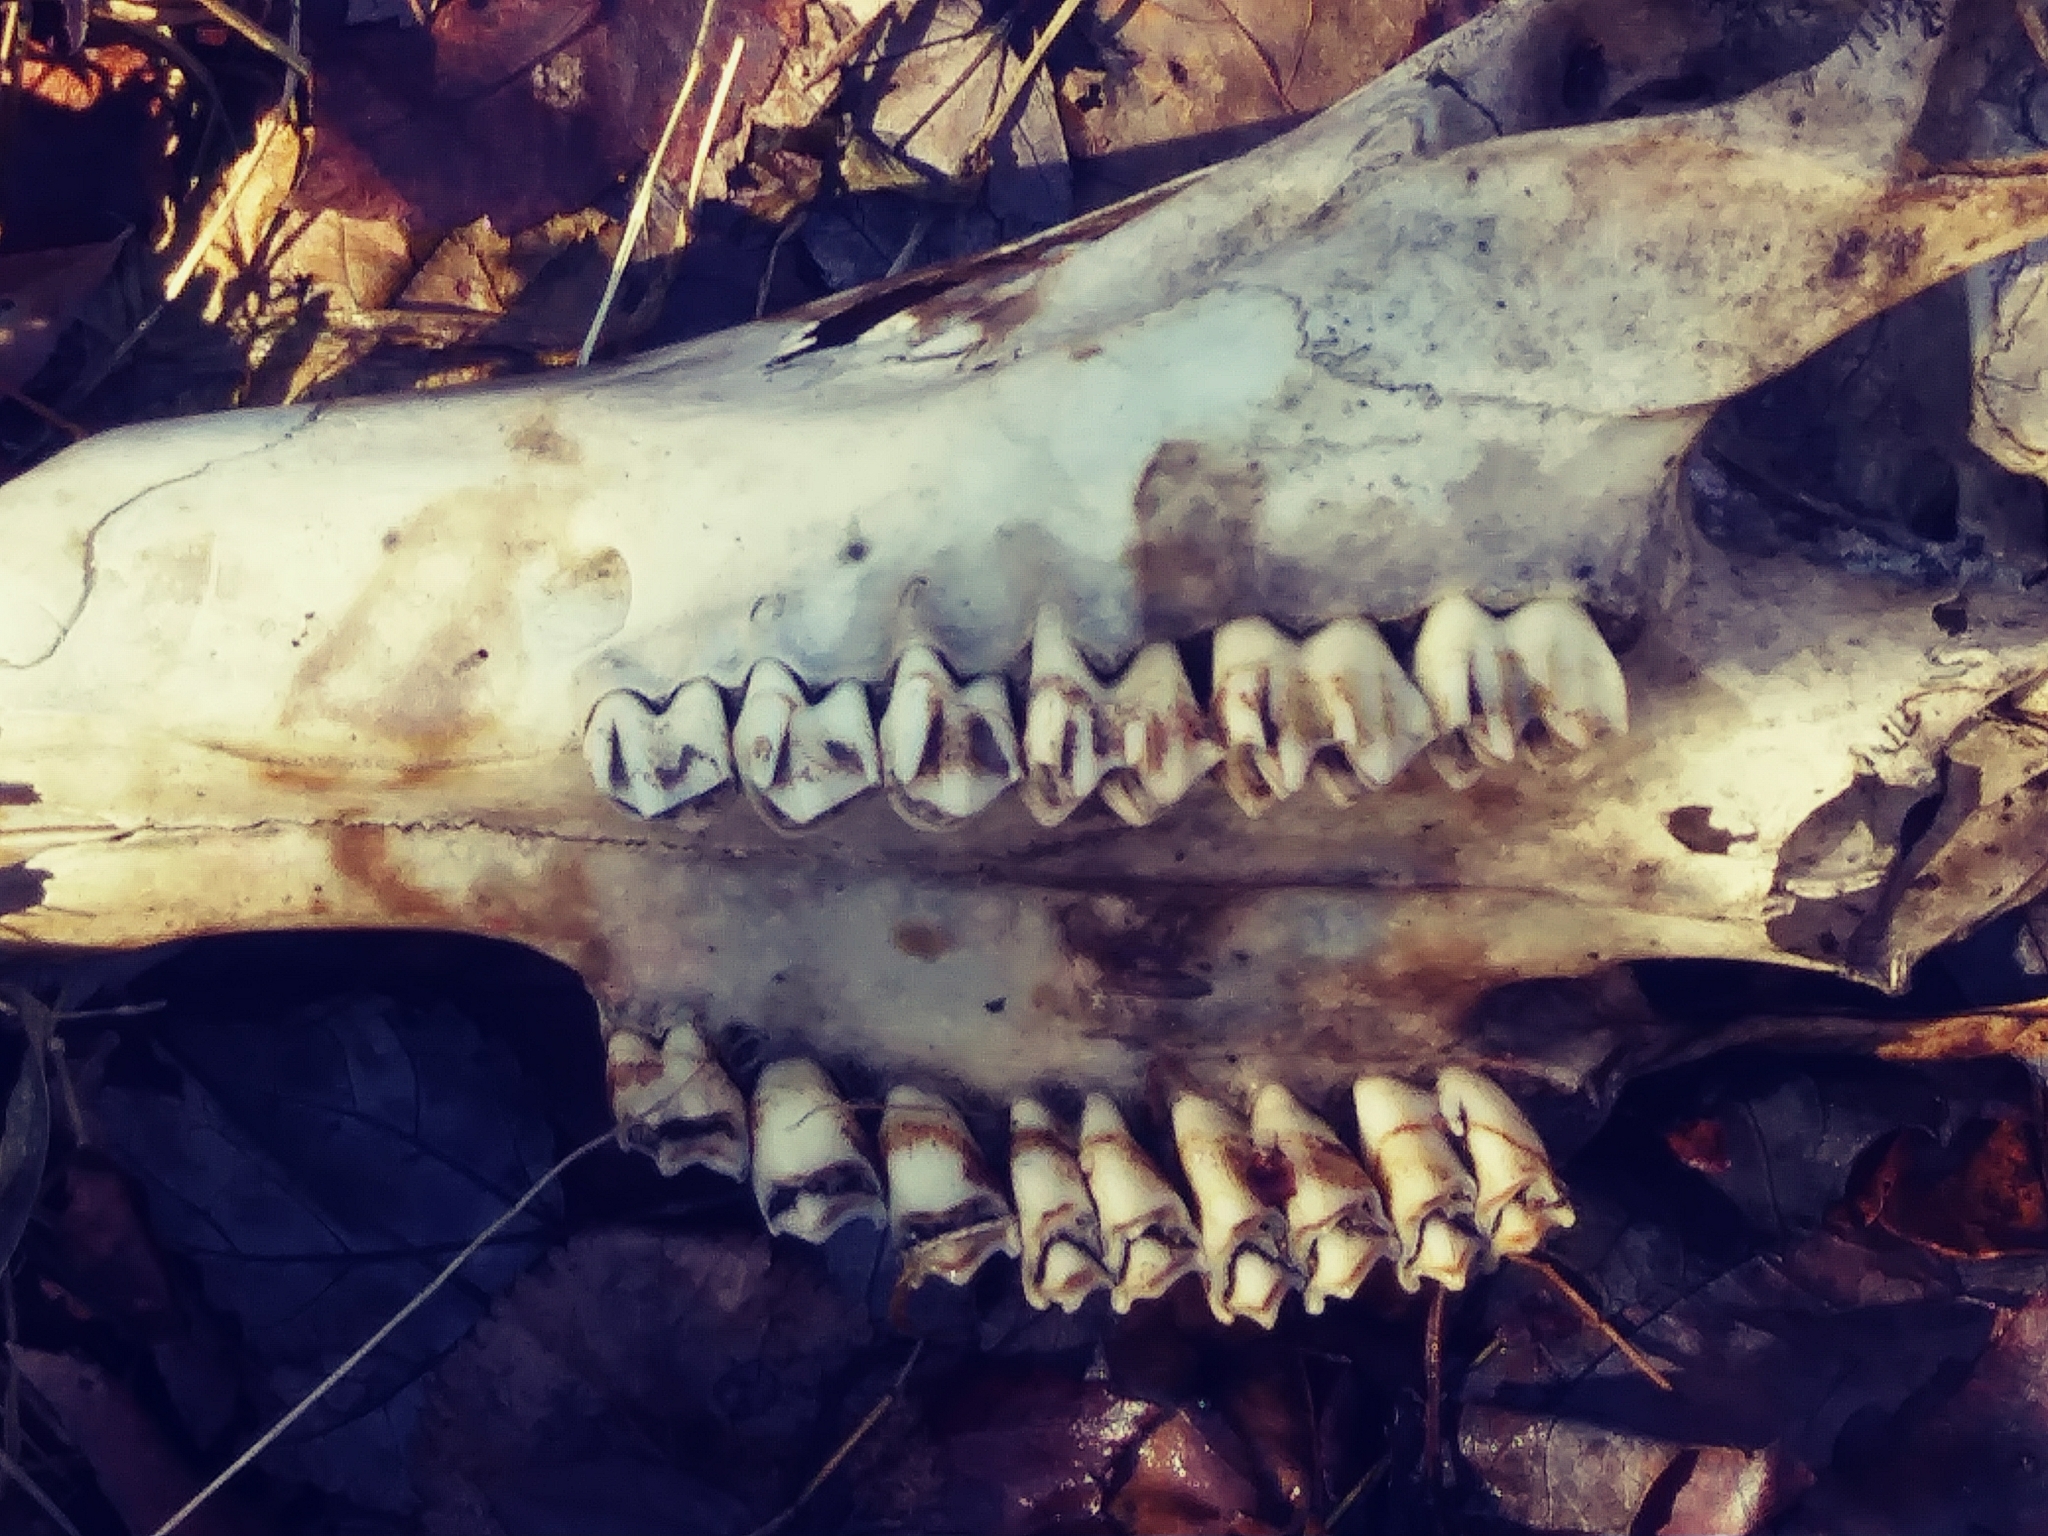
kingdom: Animalia
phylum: Chordata
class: Mammalia
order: Artiodactyla
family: Cervidae
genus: Odocoileus
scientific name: Odocoileus virginianus
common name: White-tailed deer
